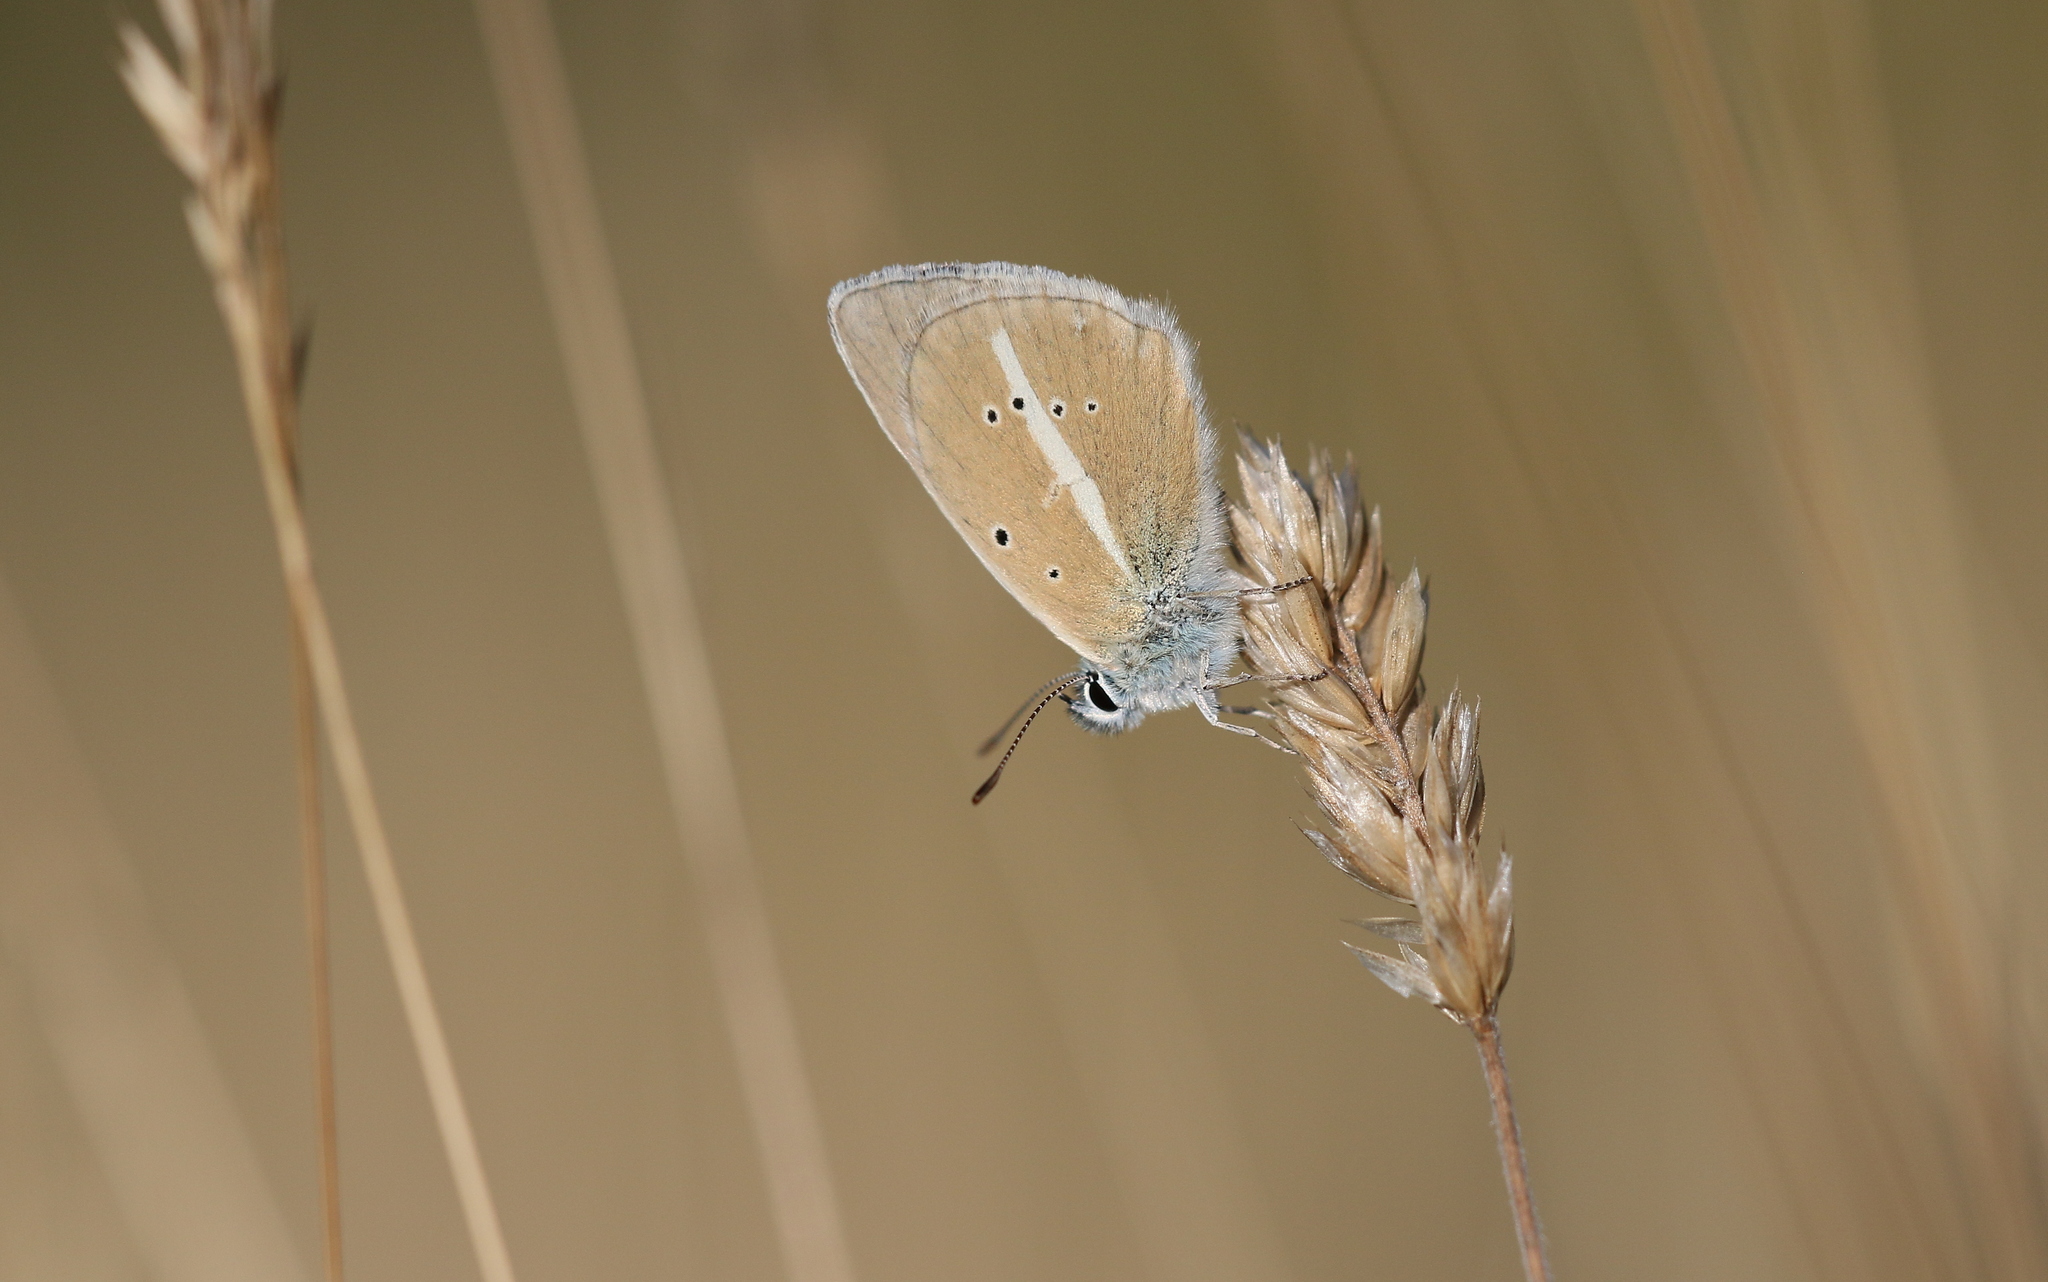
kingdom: Animalia
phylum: Arthropoda
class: Insecta
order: Lepidoptera
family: Lycaenidae
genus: Agrodiaetus
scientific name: Agrodiaetus damon
